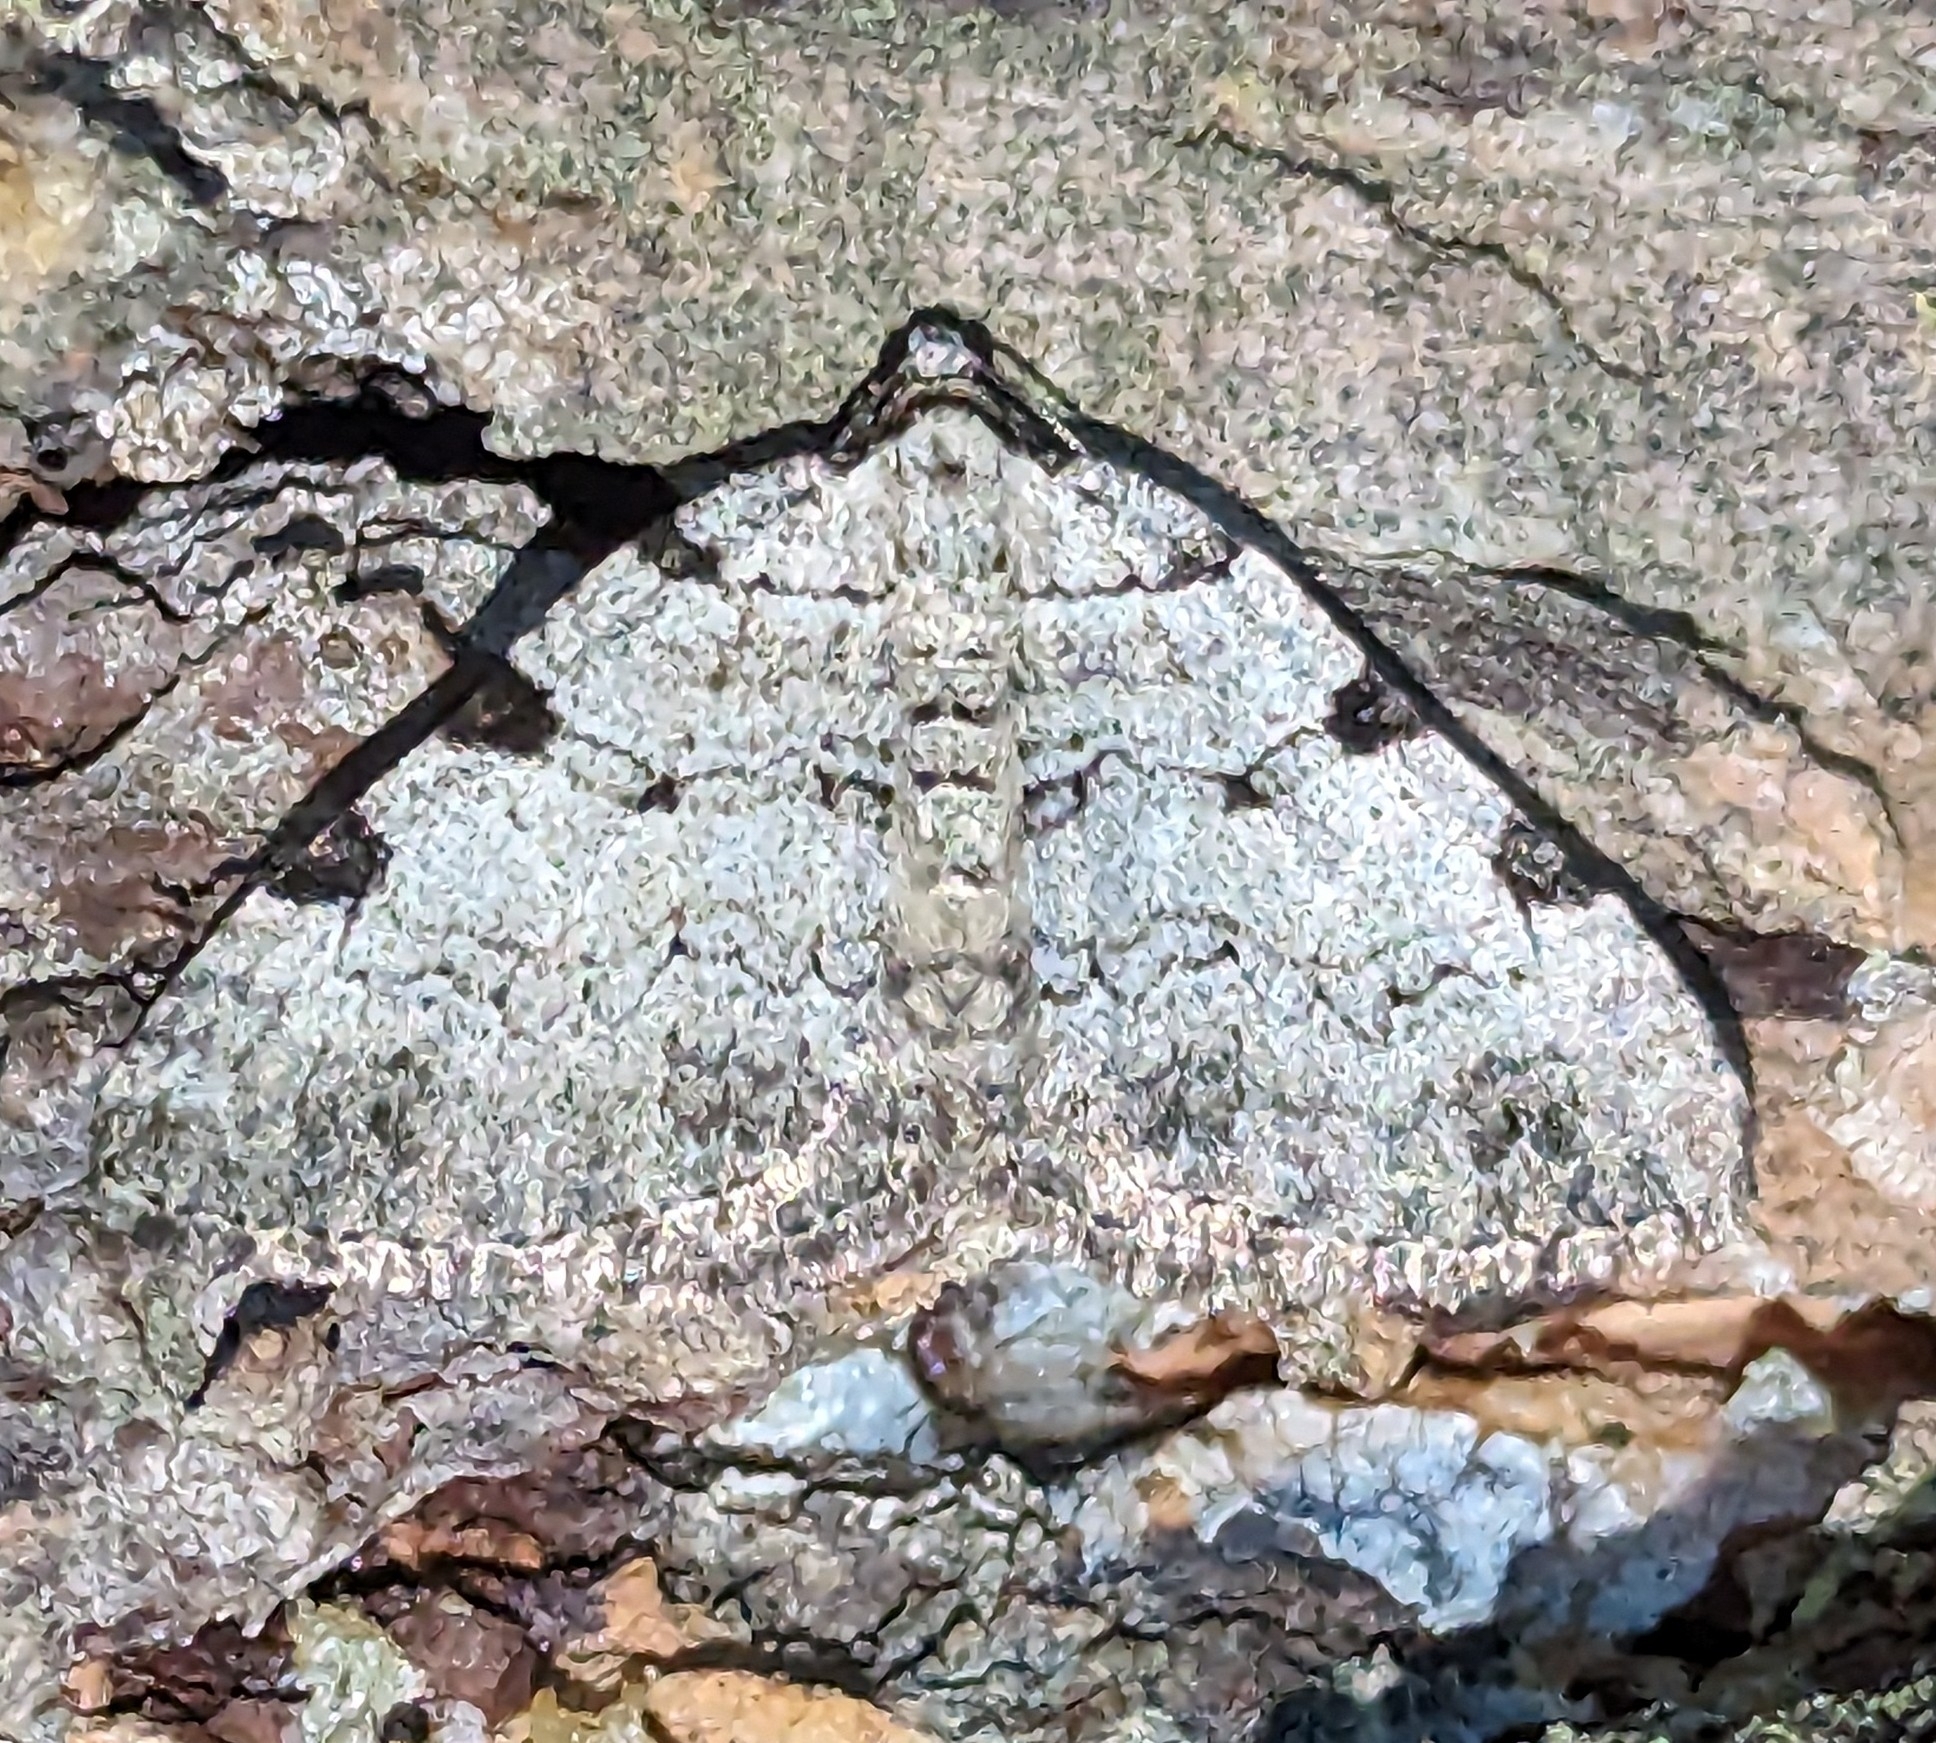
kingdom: Animalia
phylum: Arthropoda
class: Insecta
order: Lepidoptera
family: Geometridae
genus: Perizoma
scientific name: Perizoma costiguttata
